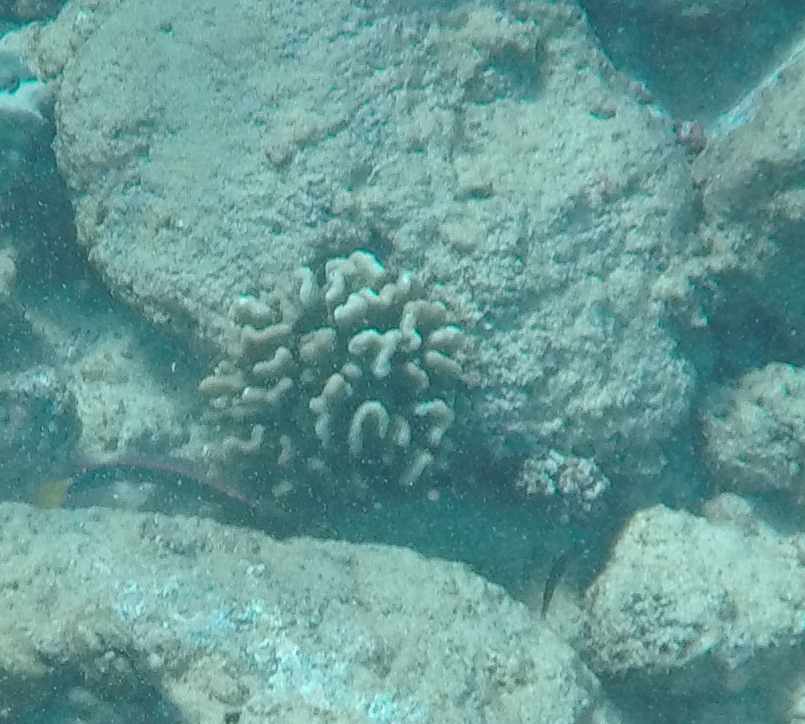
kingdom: Animalia
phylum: Cnidaria
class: Anthozoa
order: Scleractinia
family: Pocilloporidae
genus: Pocillopora
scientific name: Pocillopora meandrina
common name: Cauliflower coral
